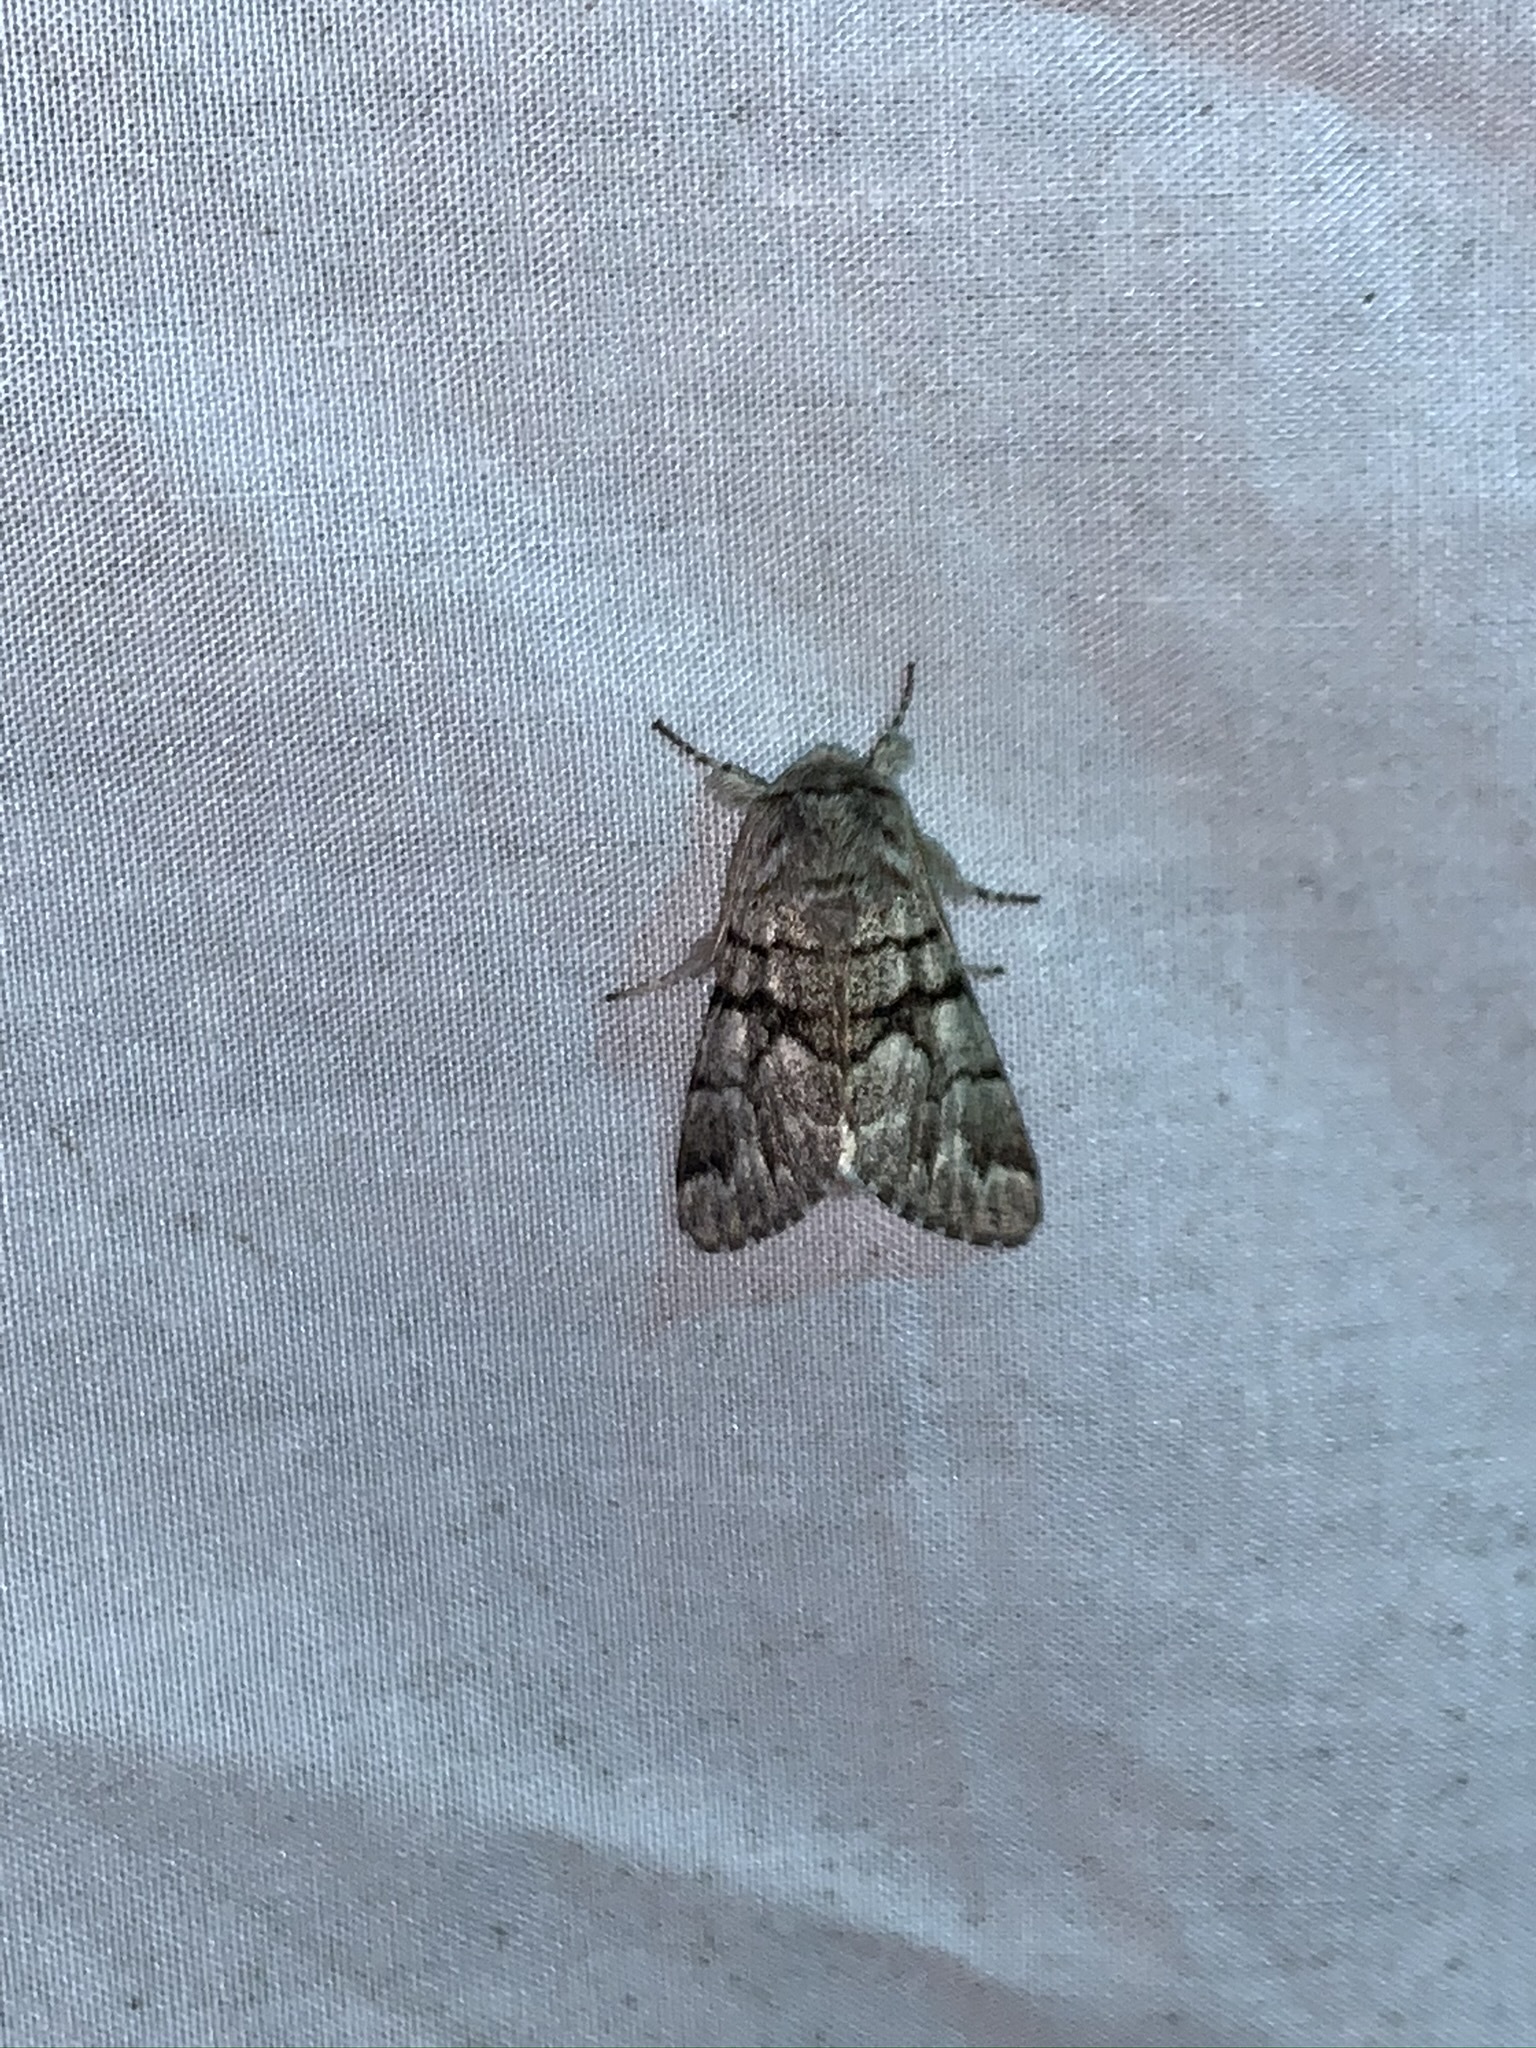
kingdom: Animalia
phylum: Arthropoda
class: Insecta
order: Lepidoptera
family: Noctuidae
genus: Panthea
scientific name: Panthea furcilla
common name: Eastern panthea moth
